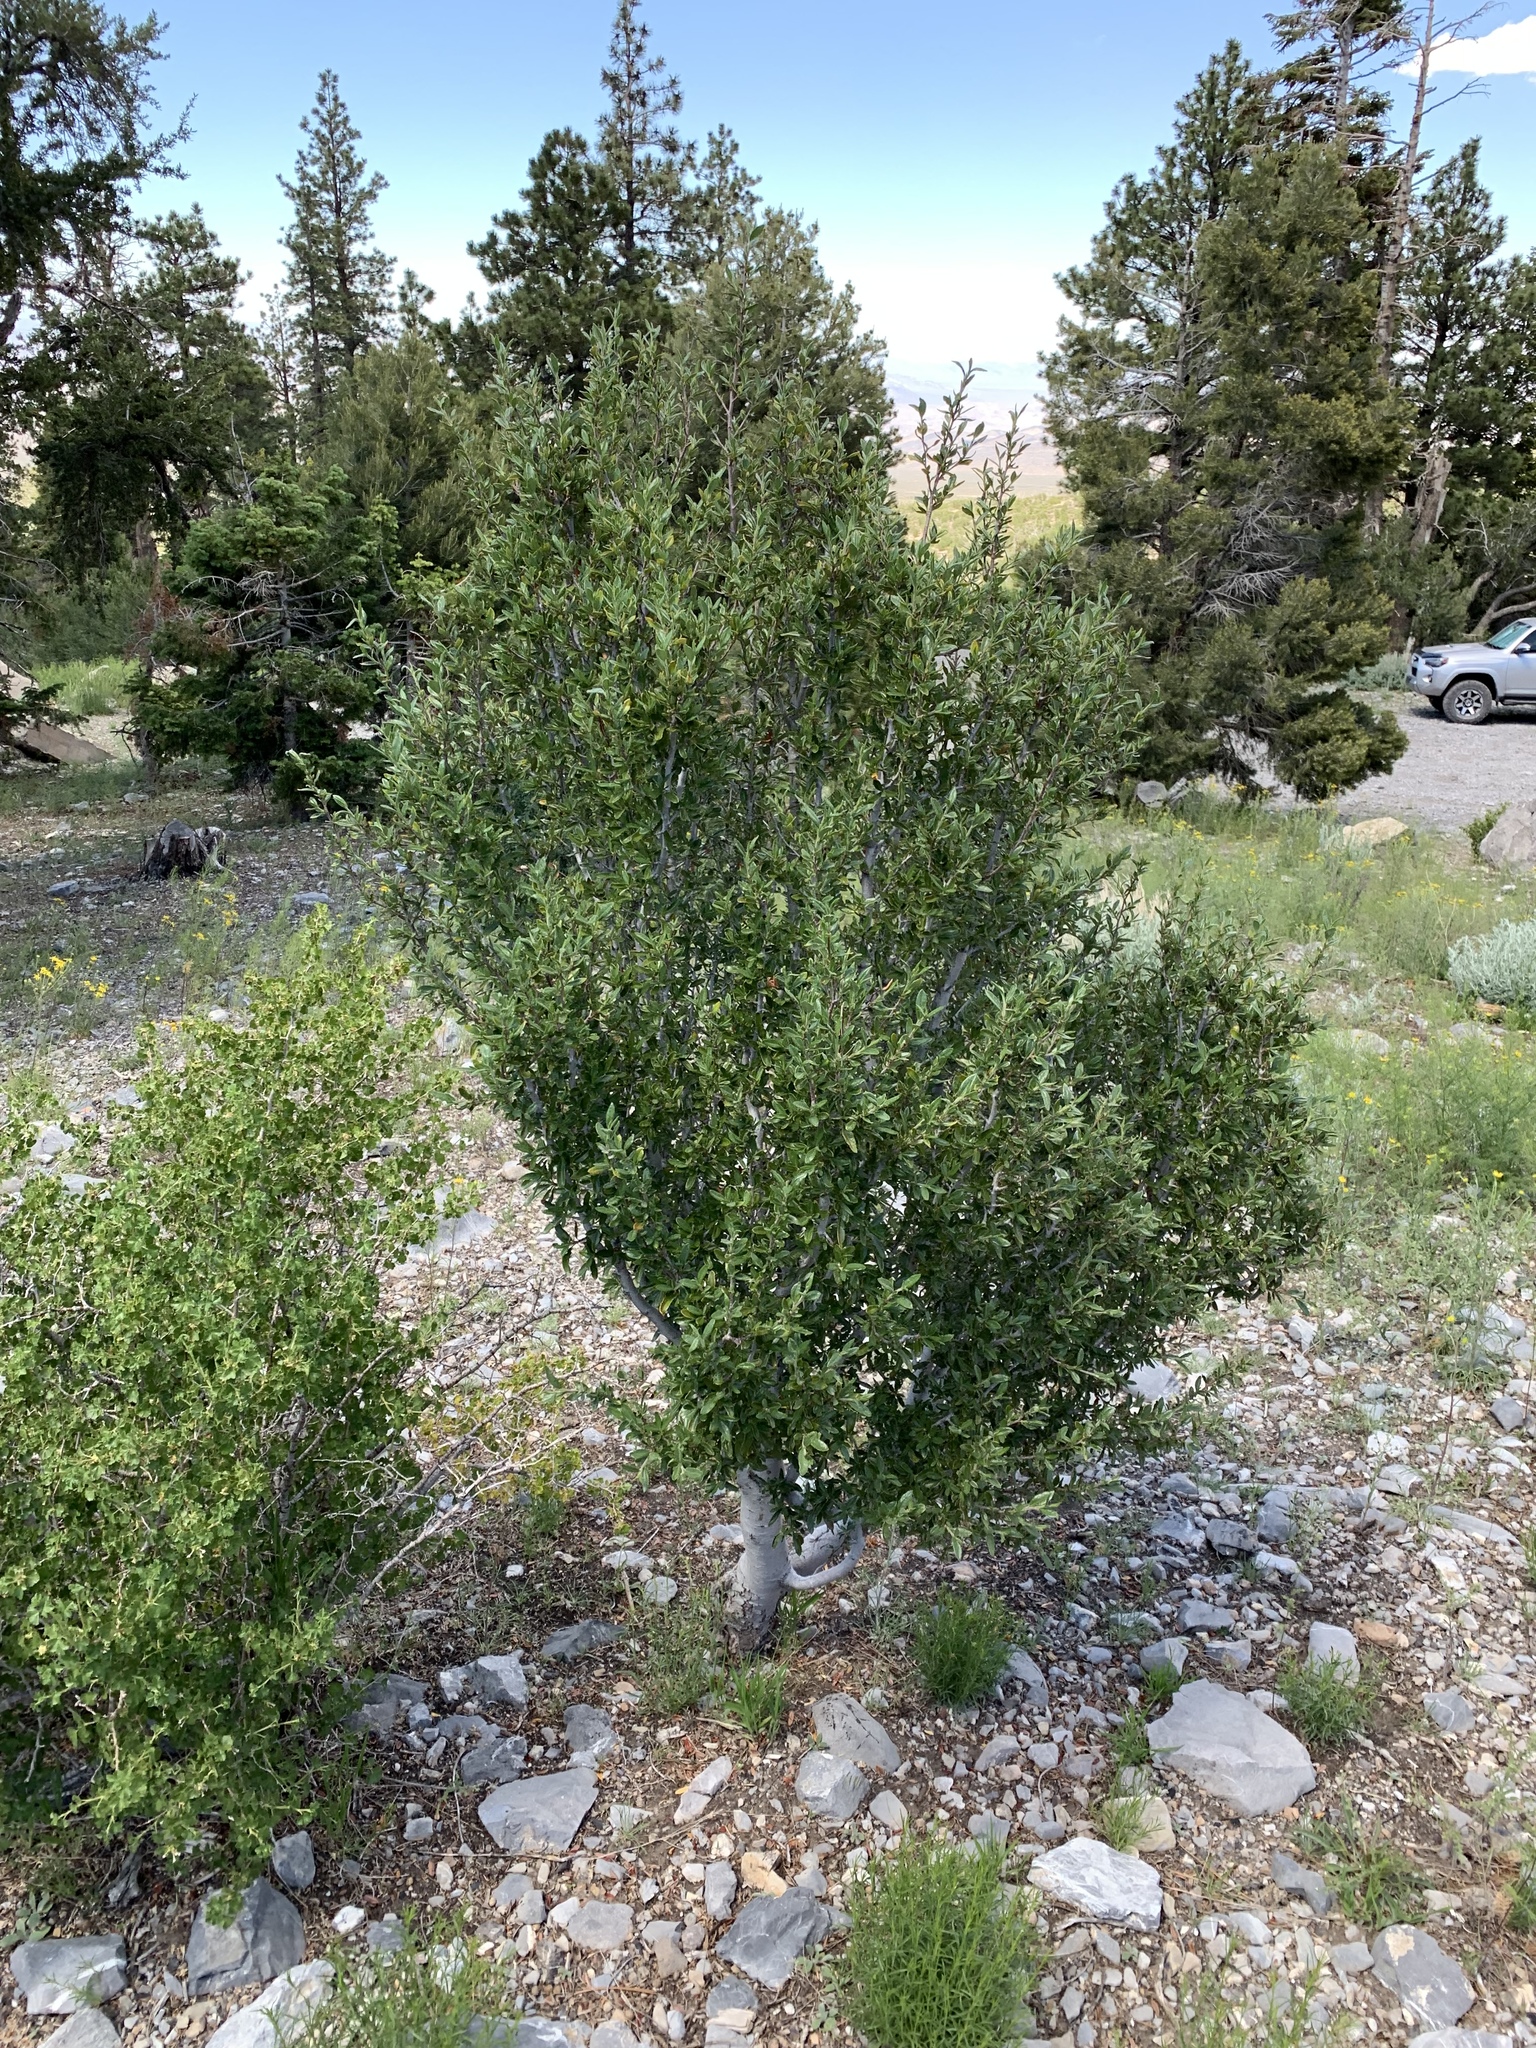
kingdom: Plantae
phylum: Tracheophyta
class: Magnoliopsida
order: Rosales
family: Rosaceae
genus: Cercocarpus
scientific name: Cercocarpus ledifolius
